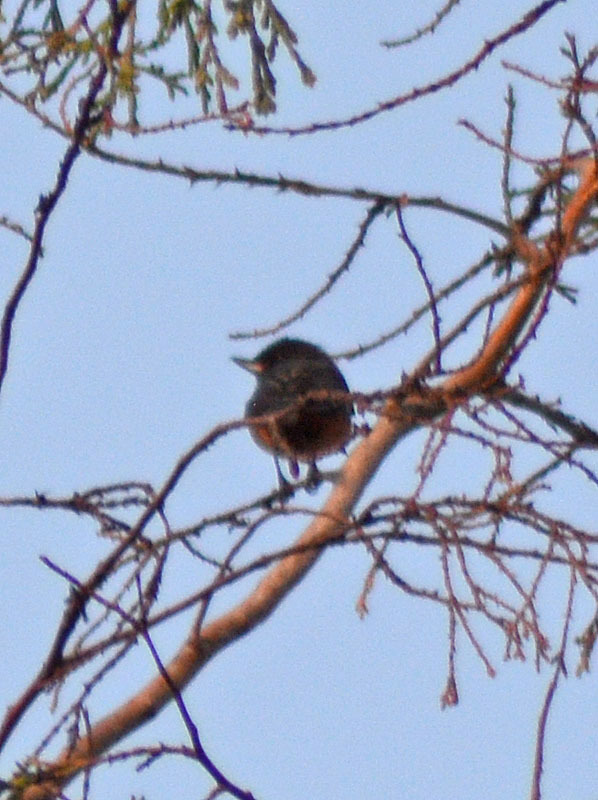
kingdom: Animalia
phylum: Chordata
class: Aves
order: Passeriformes
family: Thraupidae
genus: Diglossa
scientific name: Diglossa baritula
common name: Cinnamon-bellied flowerpiercer
